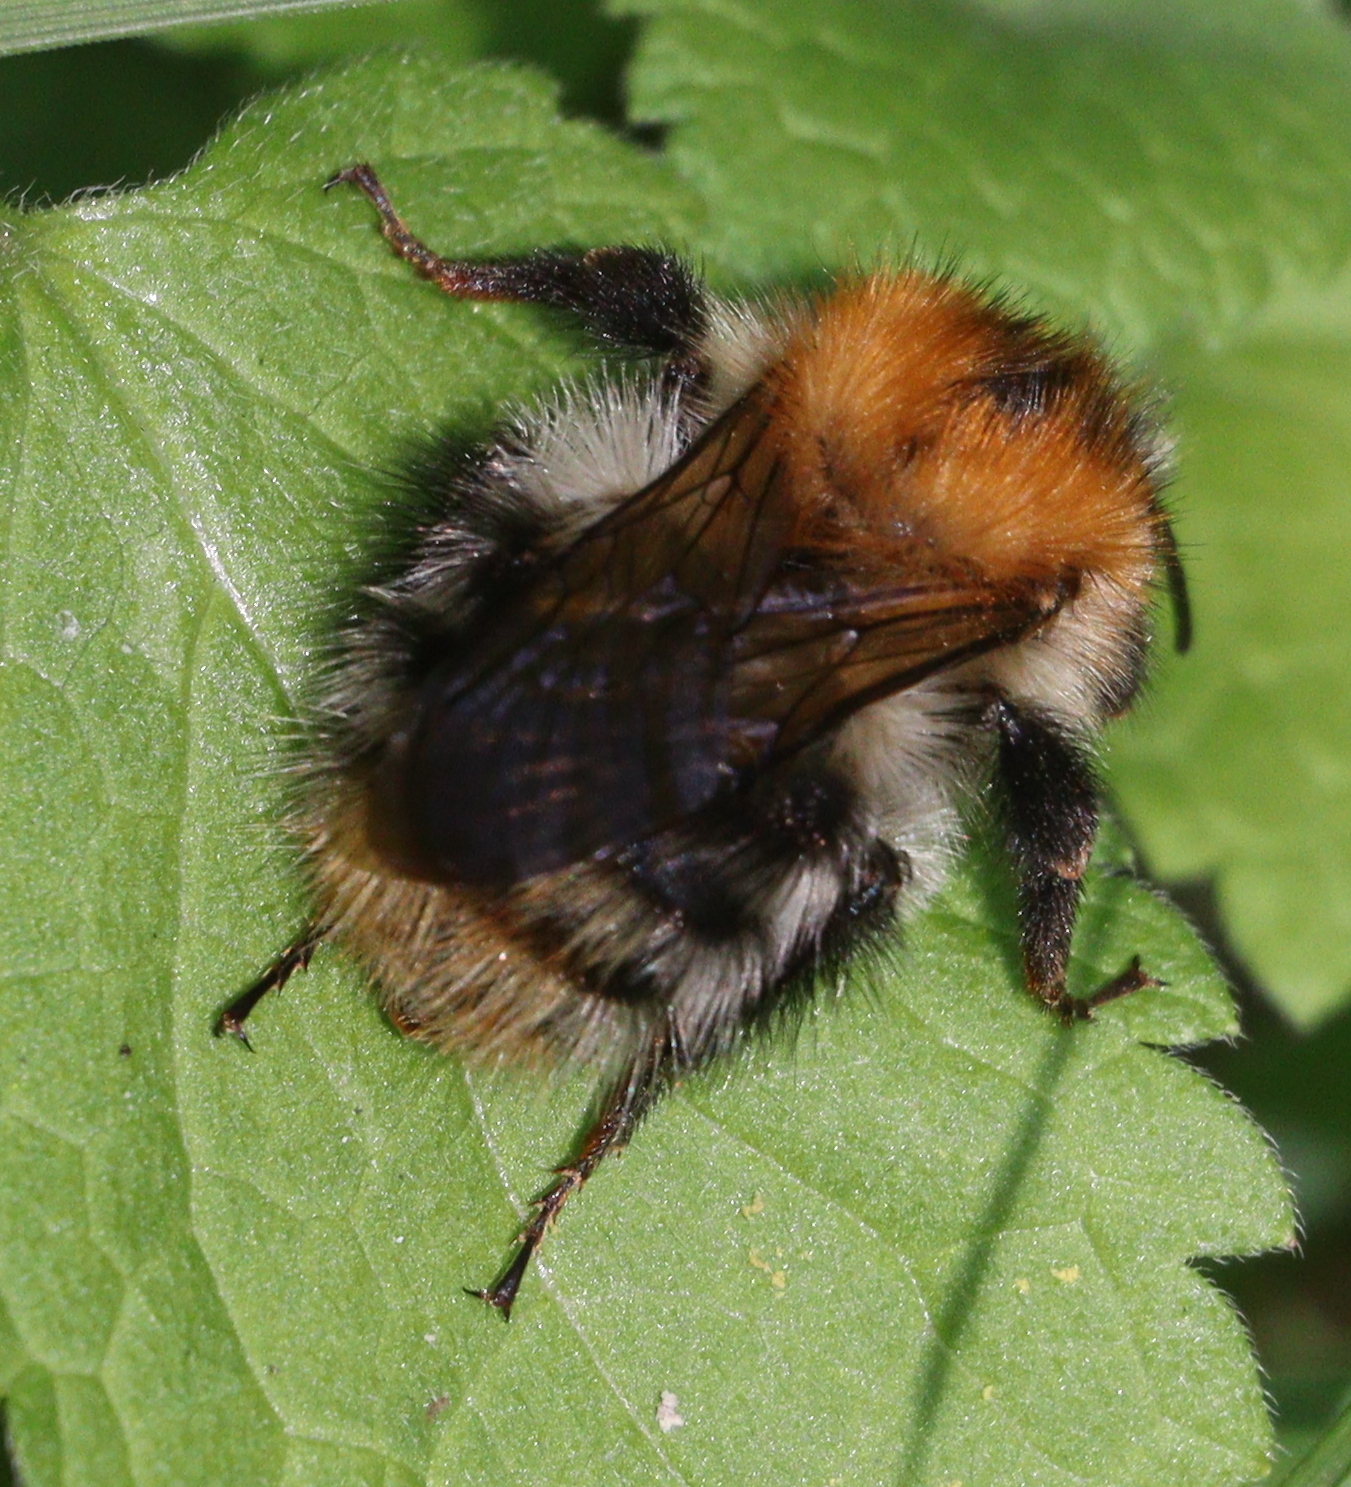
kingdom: Animalia
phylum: Arthropoda
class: Insecta
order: Hymenoptera
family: Apidae
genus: Bombus
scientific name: Bombus pascuorum
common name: Common carder bee
